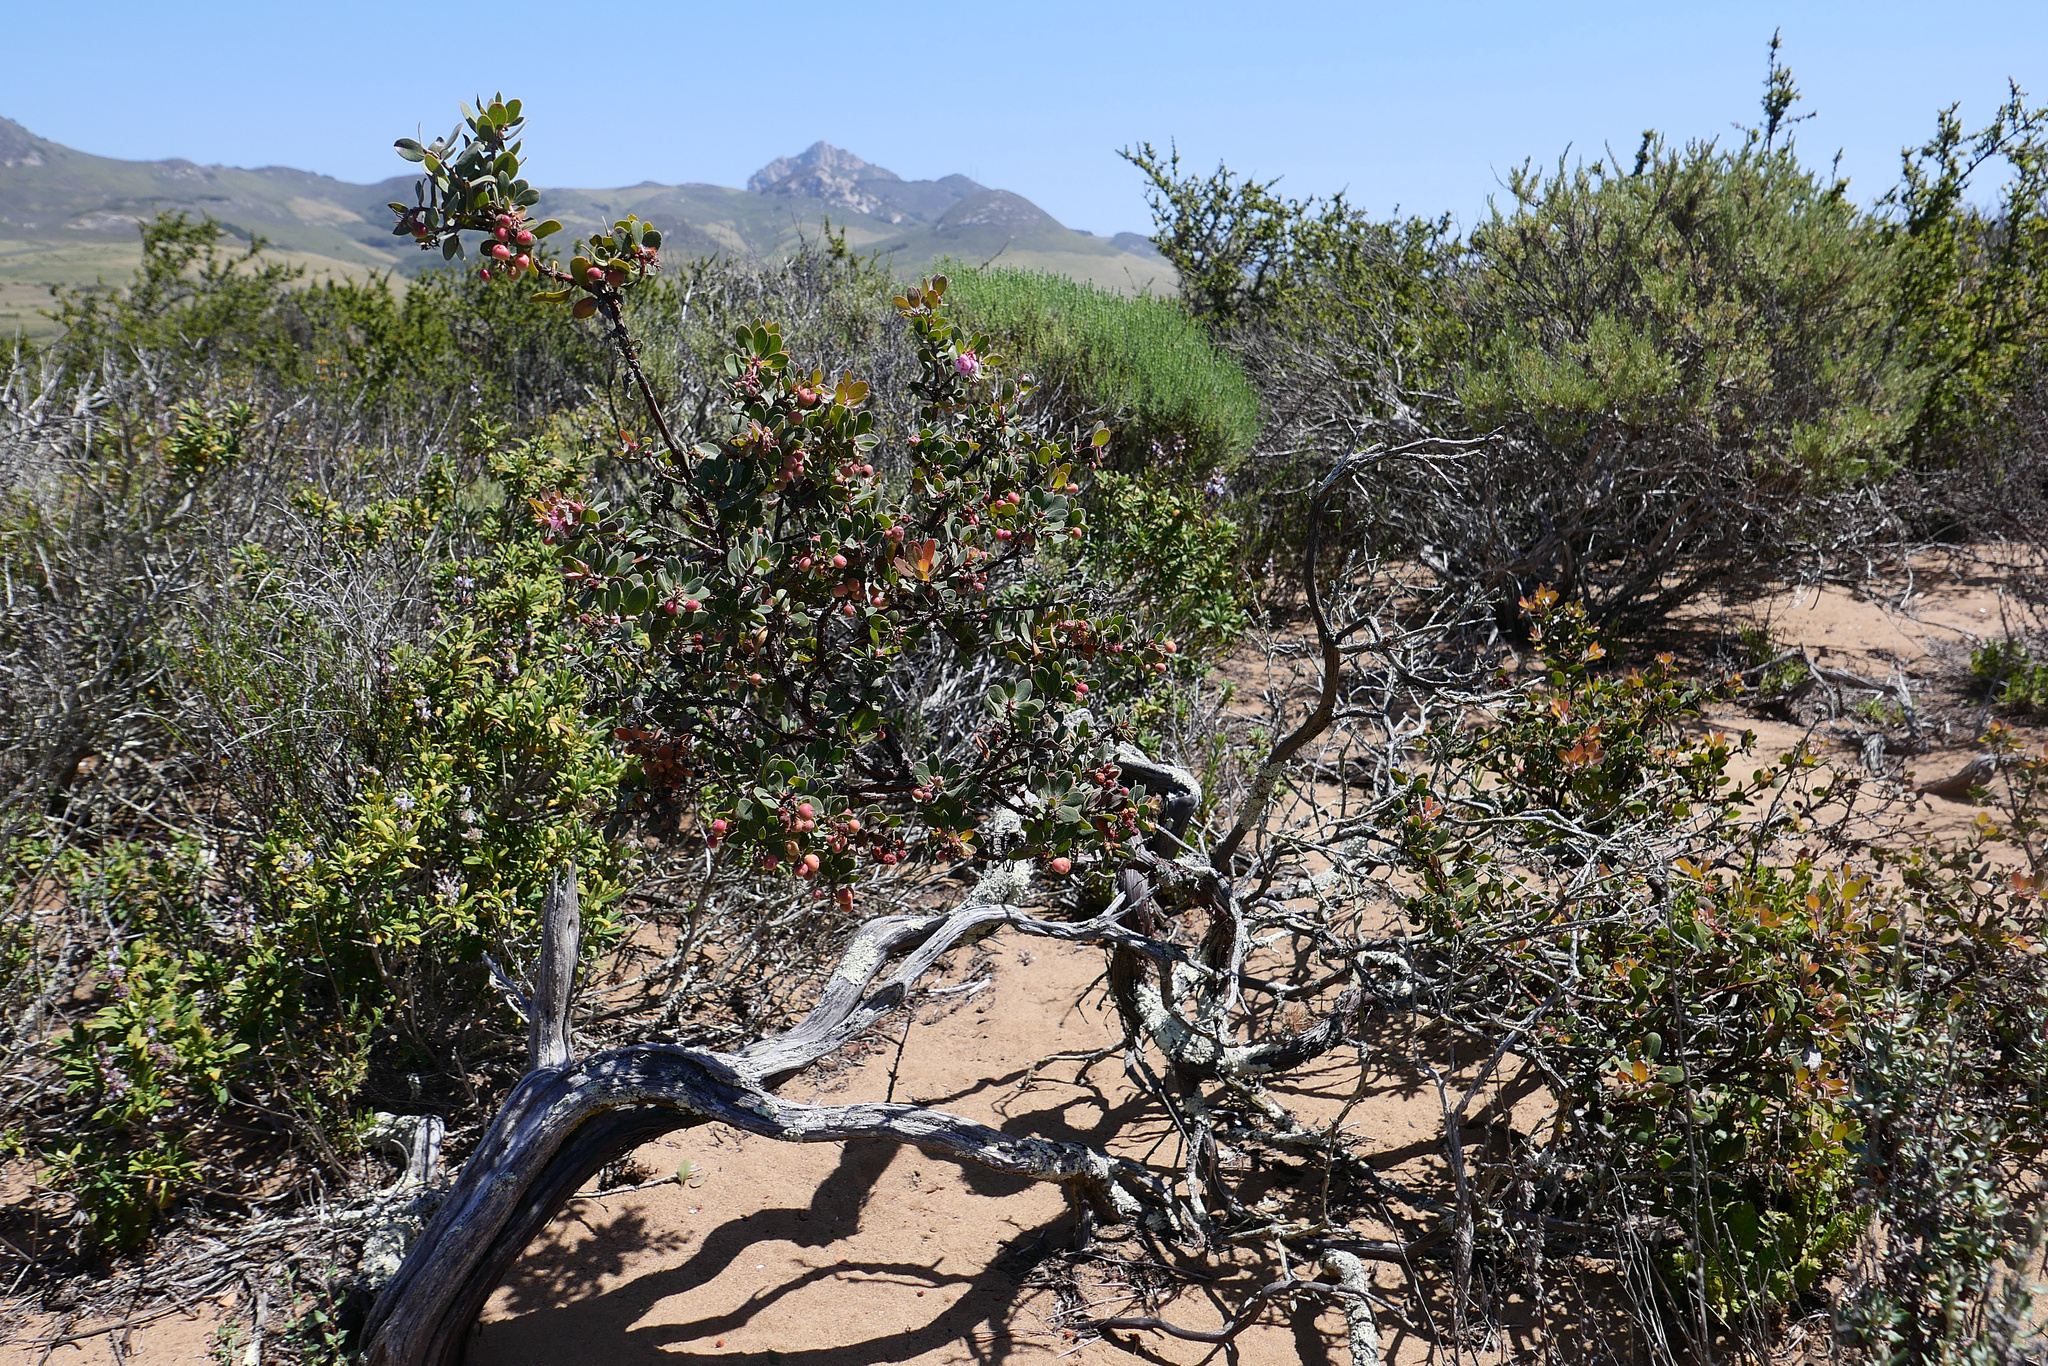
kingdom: Plantae
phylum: Tracheophyta
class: Magnoliopsida
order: Ericales
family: Ericaceae
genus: Arctostaphylos
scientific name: Arctostaphylos morroensis
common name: Morro manzanita
